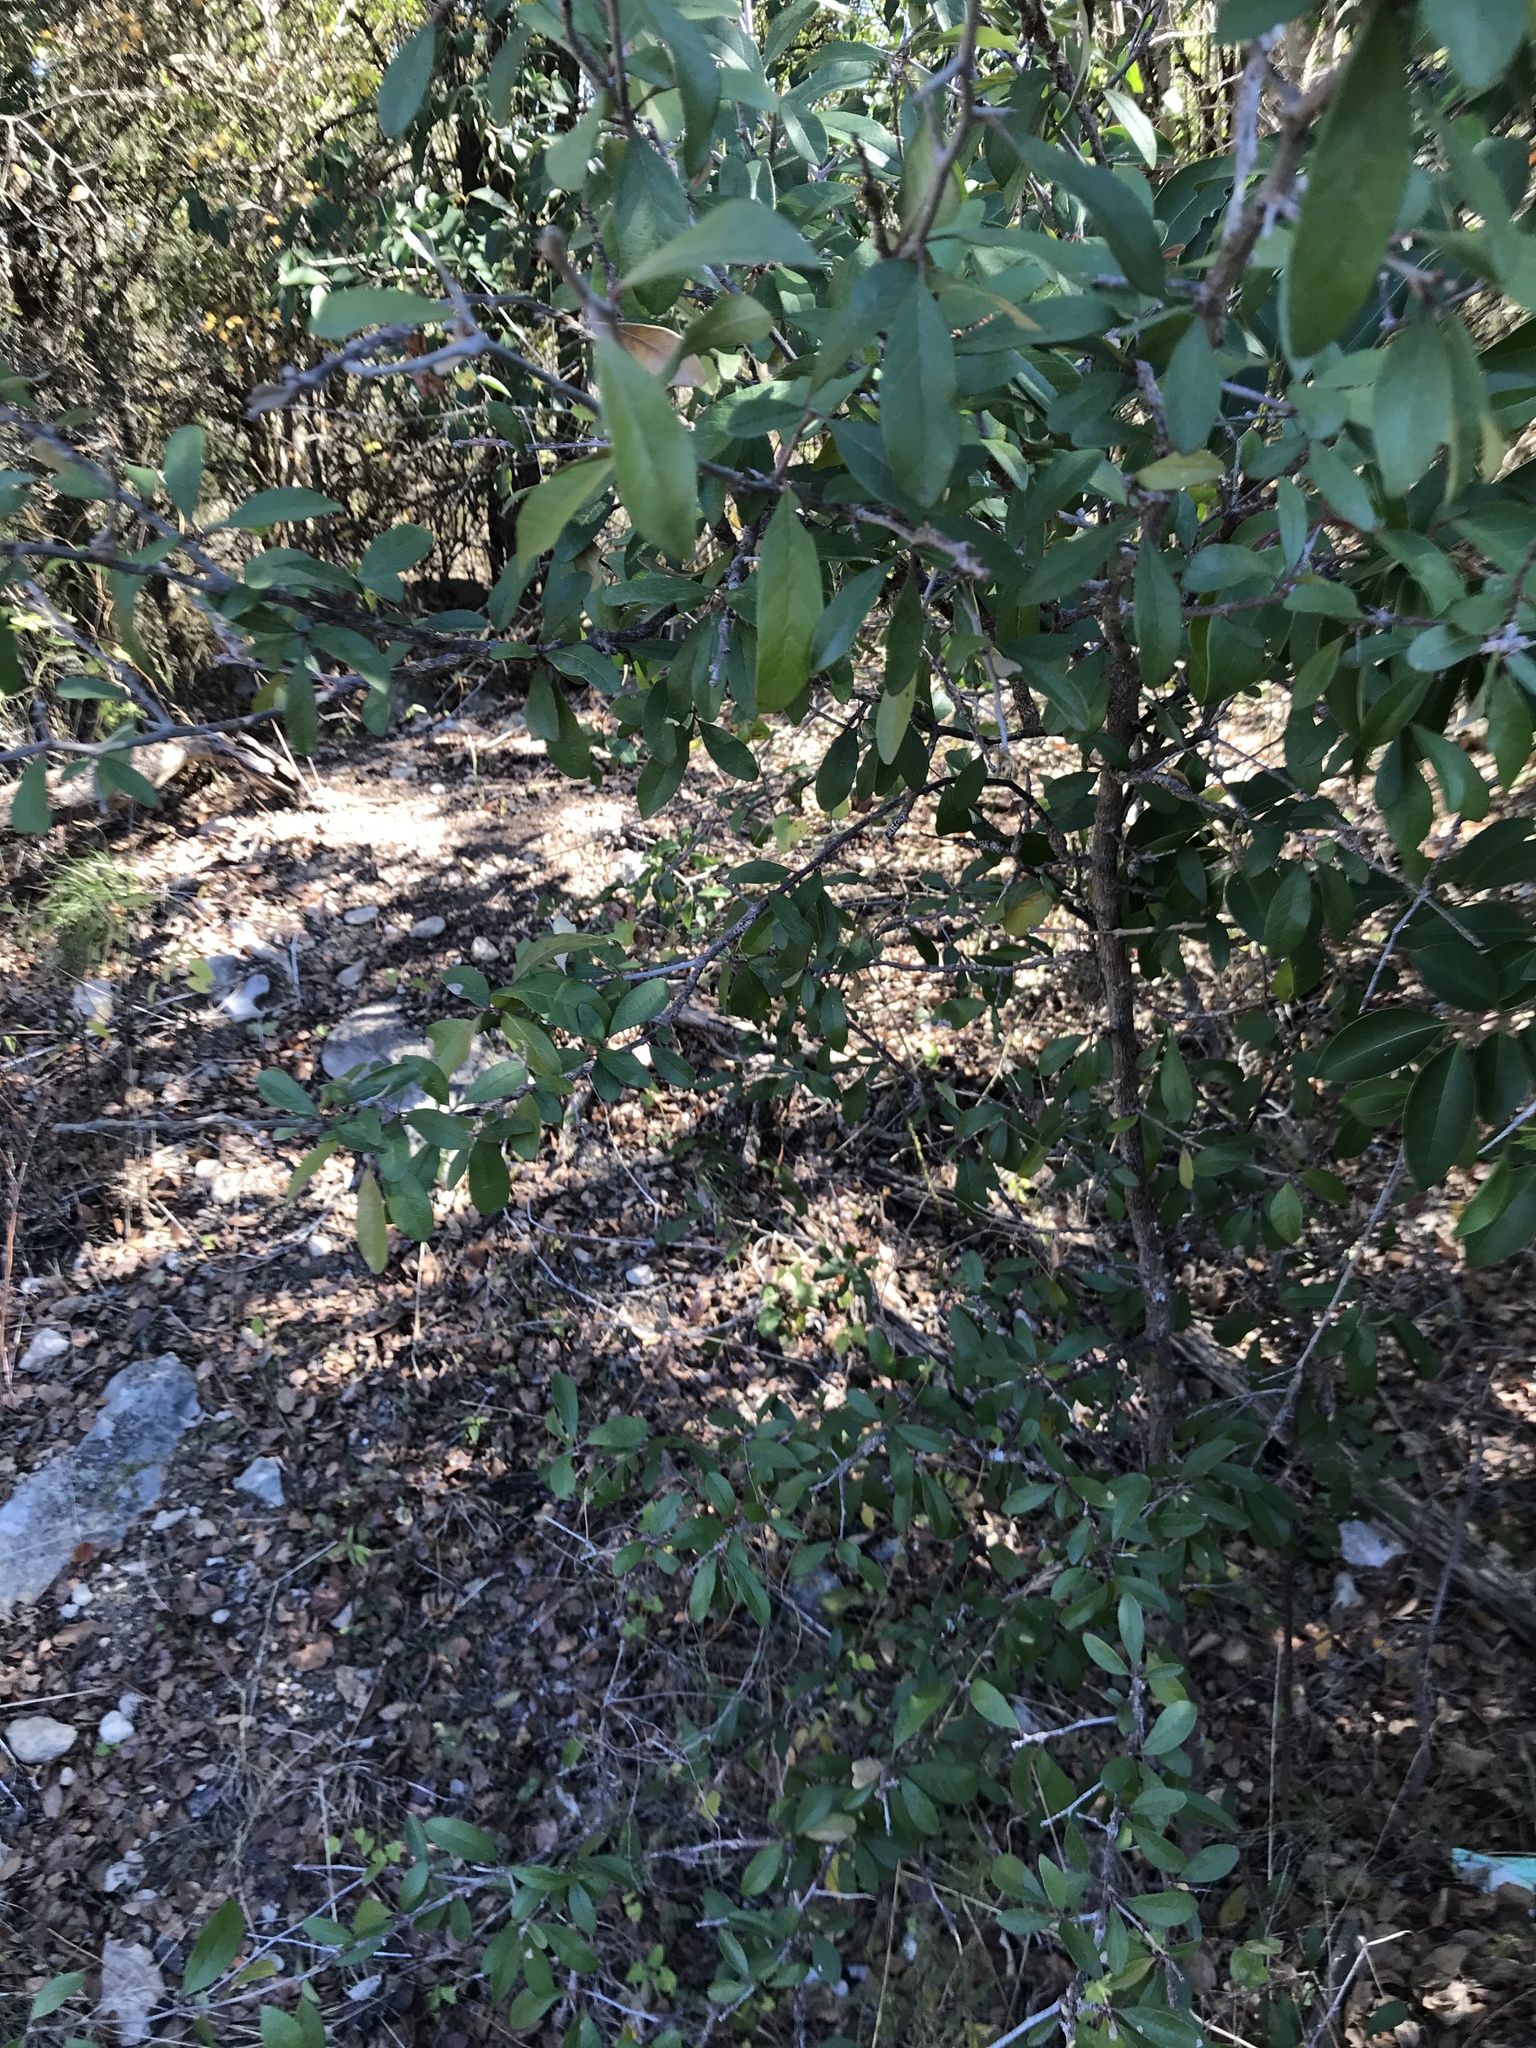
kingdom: Plantae
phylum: Tracheophyta
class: Magnoliopsida
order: Ericales
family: Sapotaceae
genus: Sideroxylon
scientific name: Sideroxylon lanuginosum
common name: Chittamwood
